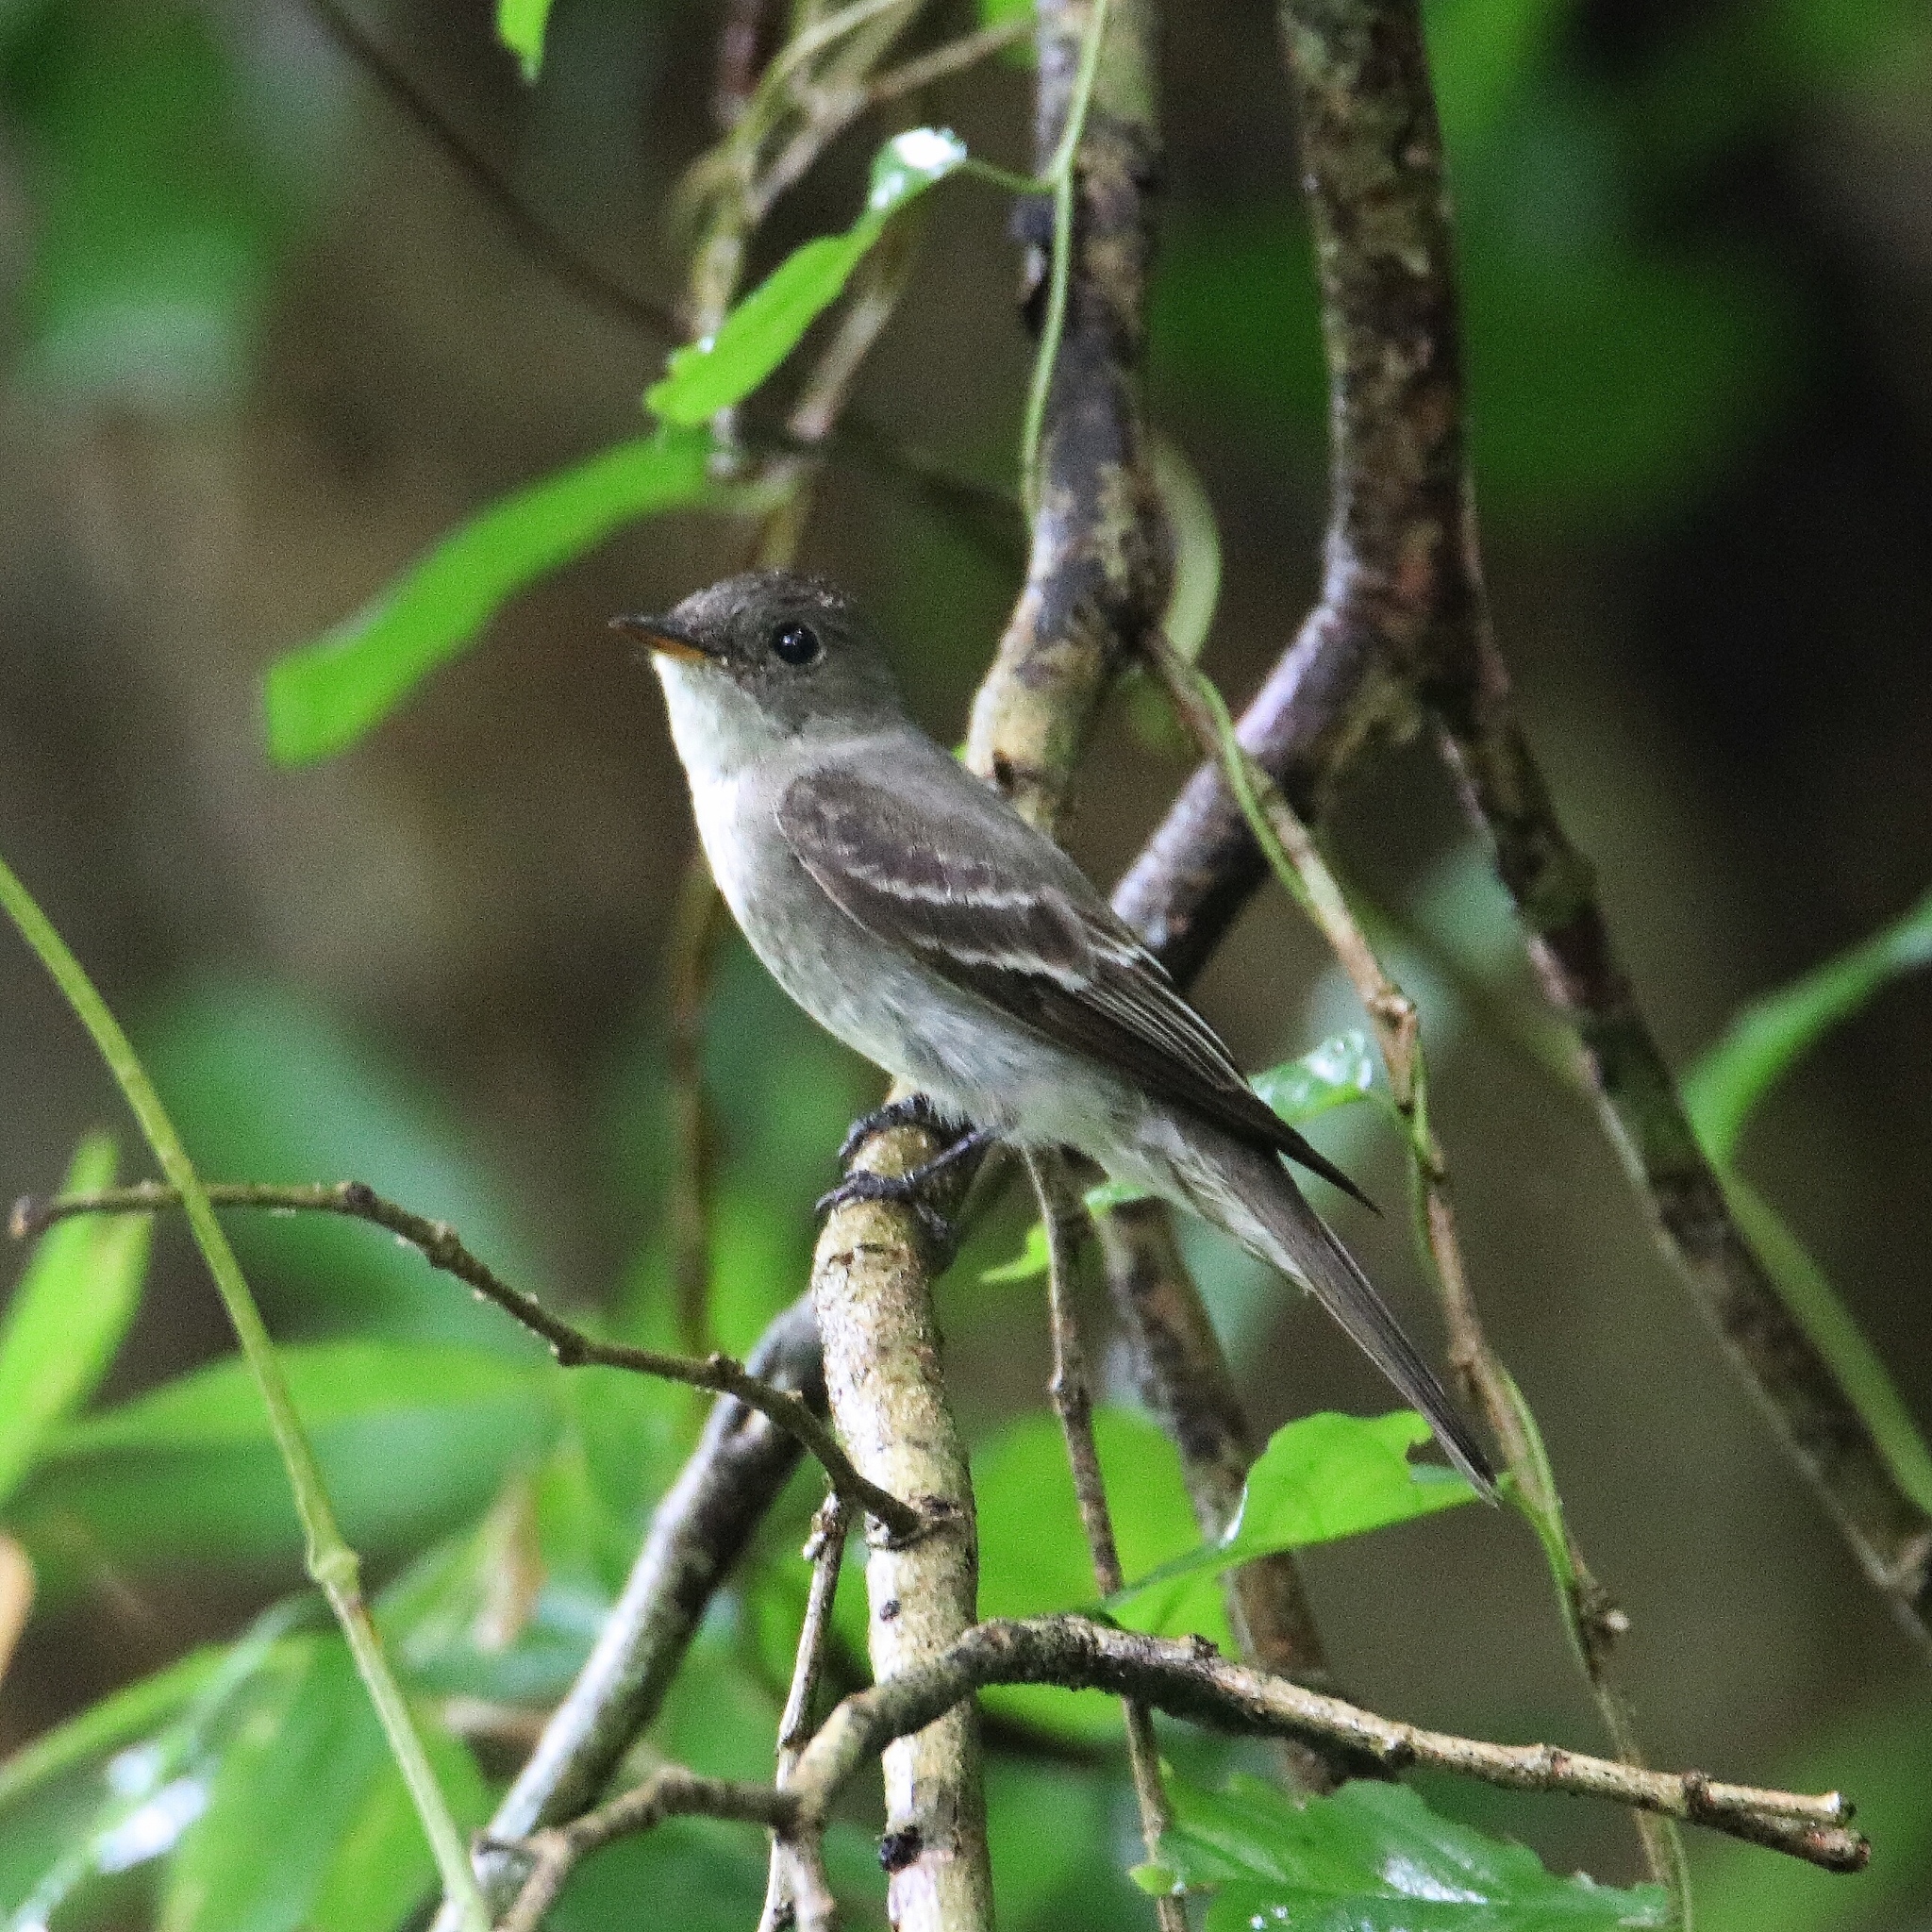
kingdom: Animalia
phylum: Chordata
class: Aves
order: Passeriformes
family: Tyrannidae
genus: Contopus
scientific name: Contopus virens
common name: Eastern wood-pewee
